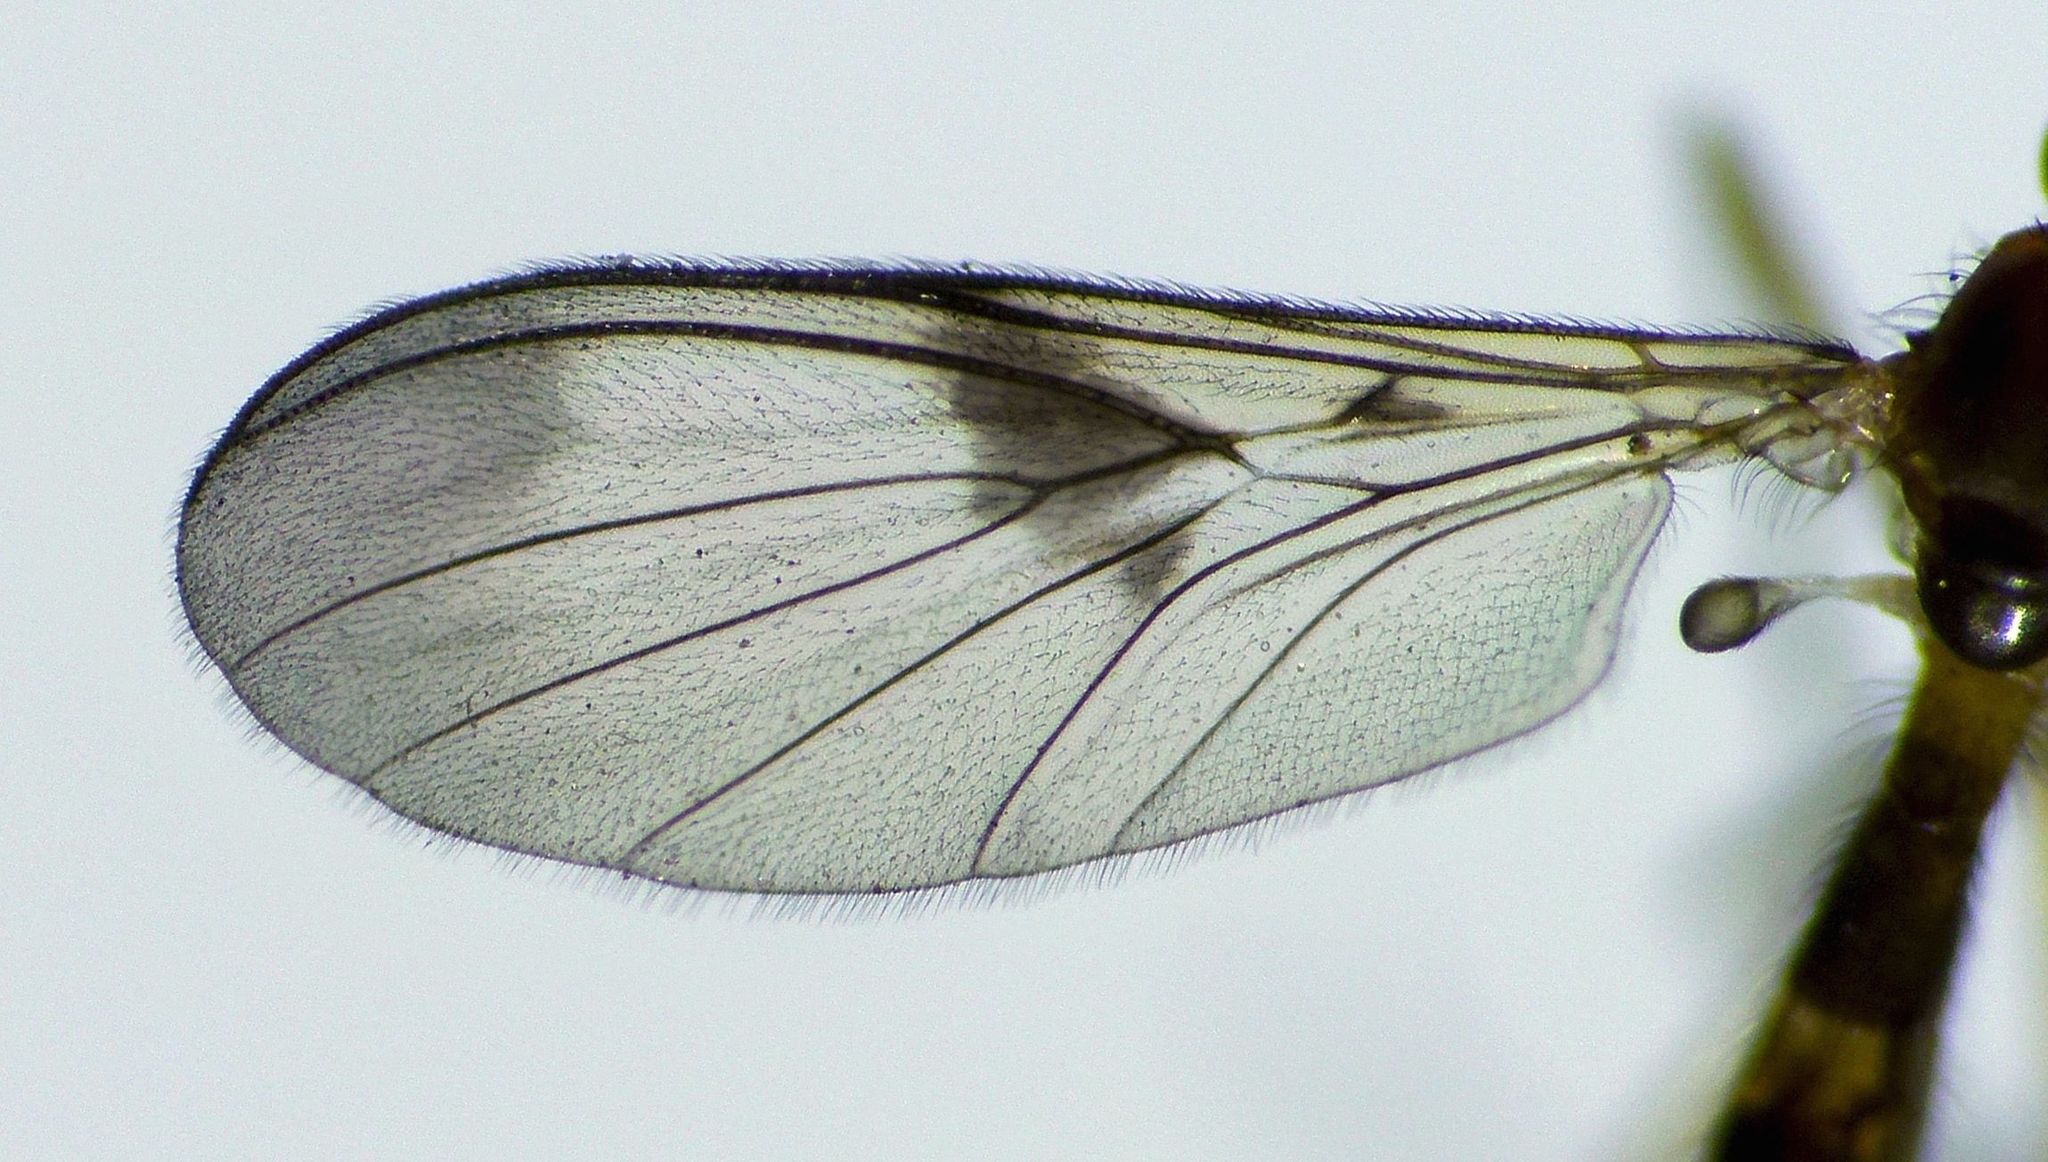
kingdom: Animalia
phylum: Arthropoda
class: Insecta
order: Diptera
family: Keroplatidae
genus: Macrocera
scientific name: Macrocera scoparia
